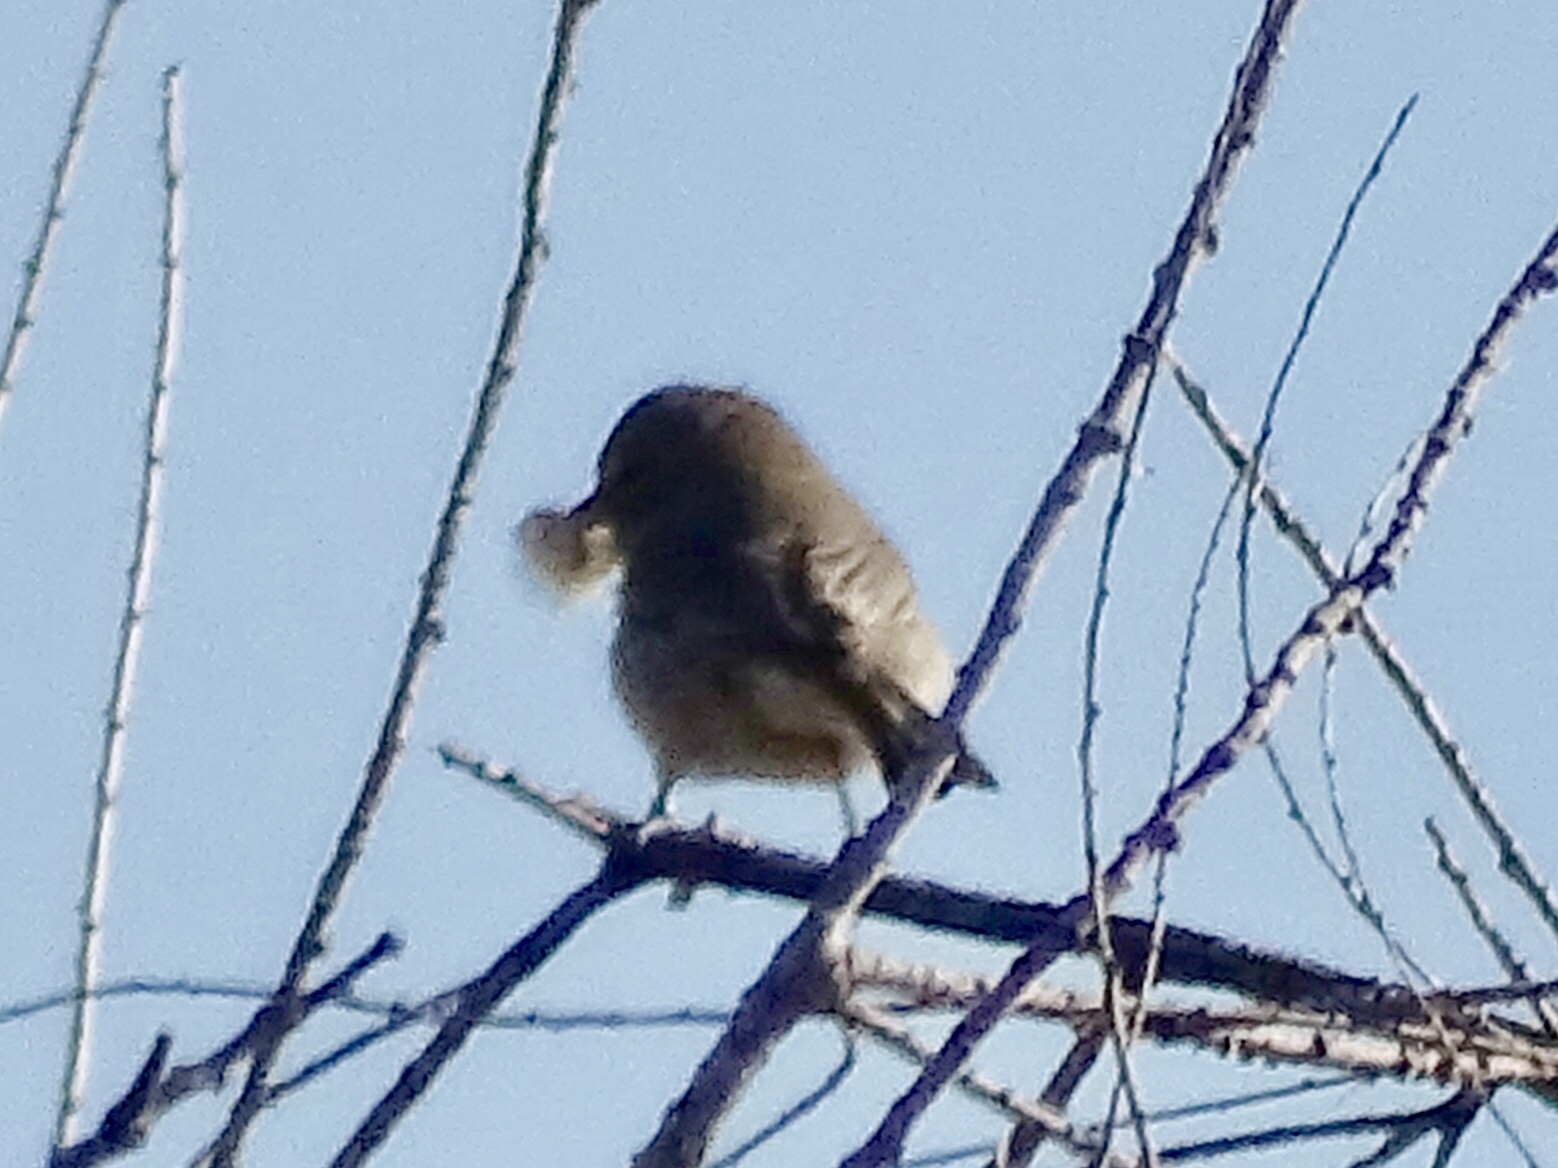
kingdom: Animalia
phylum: Chordata
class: Aves
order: Passeriformes
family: Remizidae
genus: Auriparus
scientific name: Auriparus flaviceps
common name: Verdin
